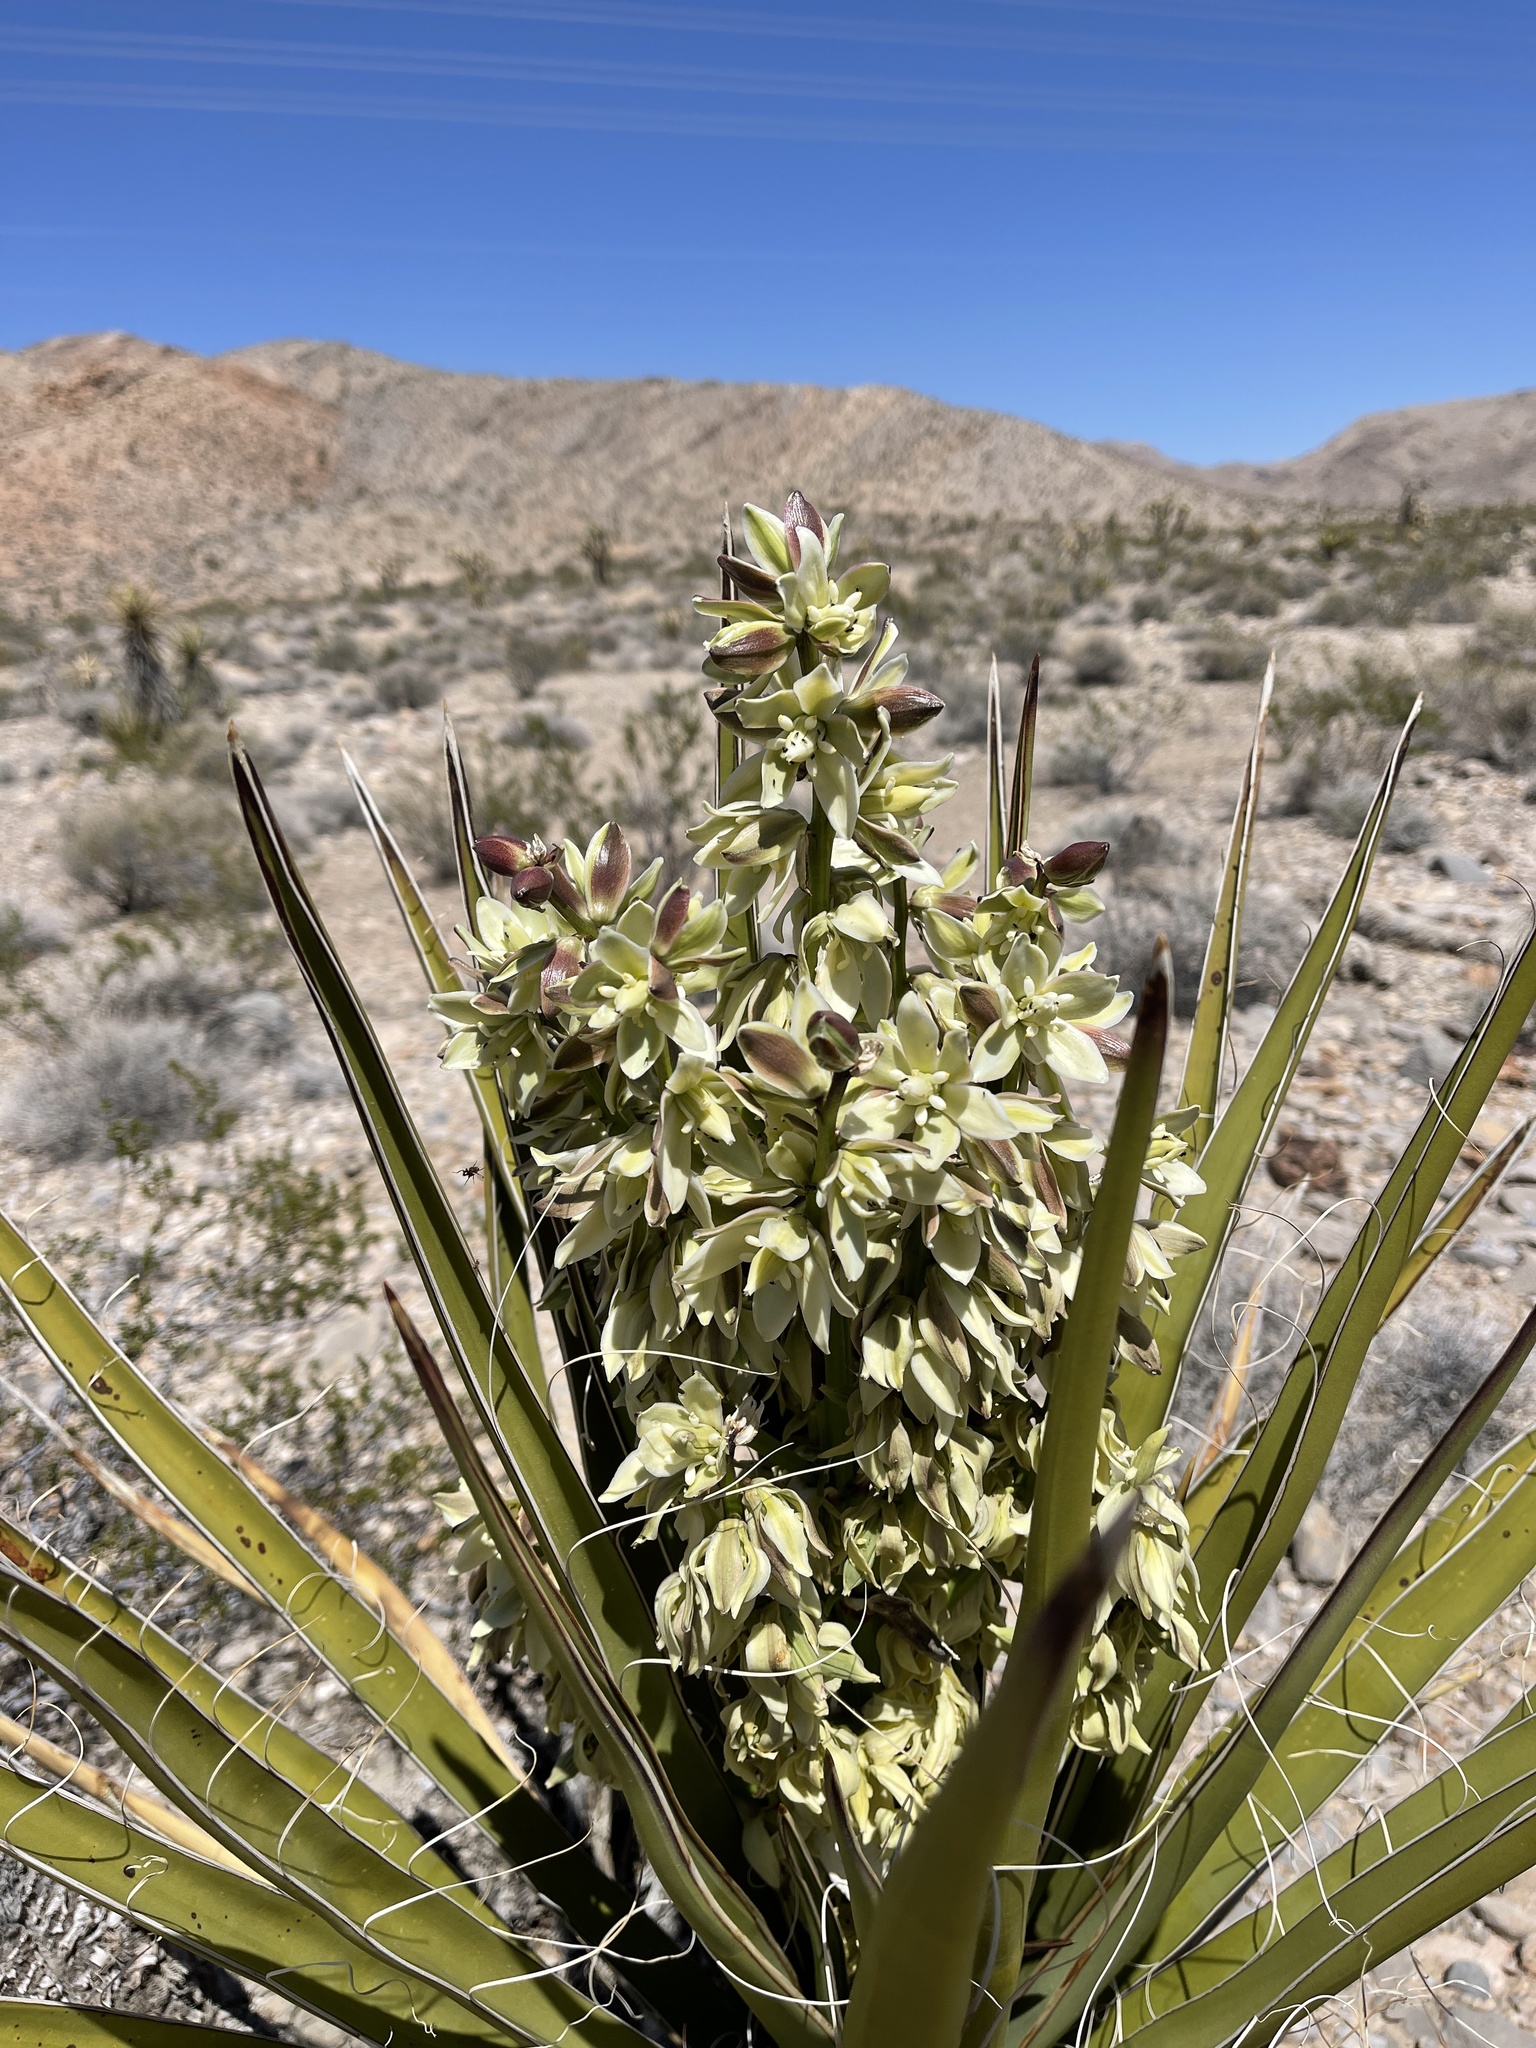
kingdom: Plantae
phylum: Tracheophyta
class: Liliopsida
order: Asparagales
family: Asparagaceae
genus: Yucca
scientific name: Yucca schidigera
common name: Mojave yucca
